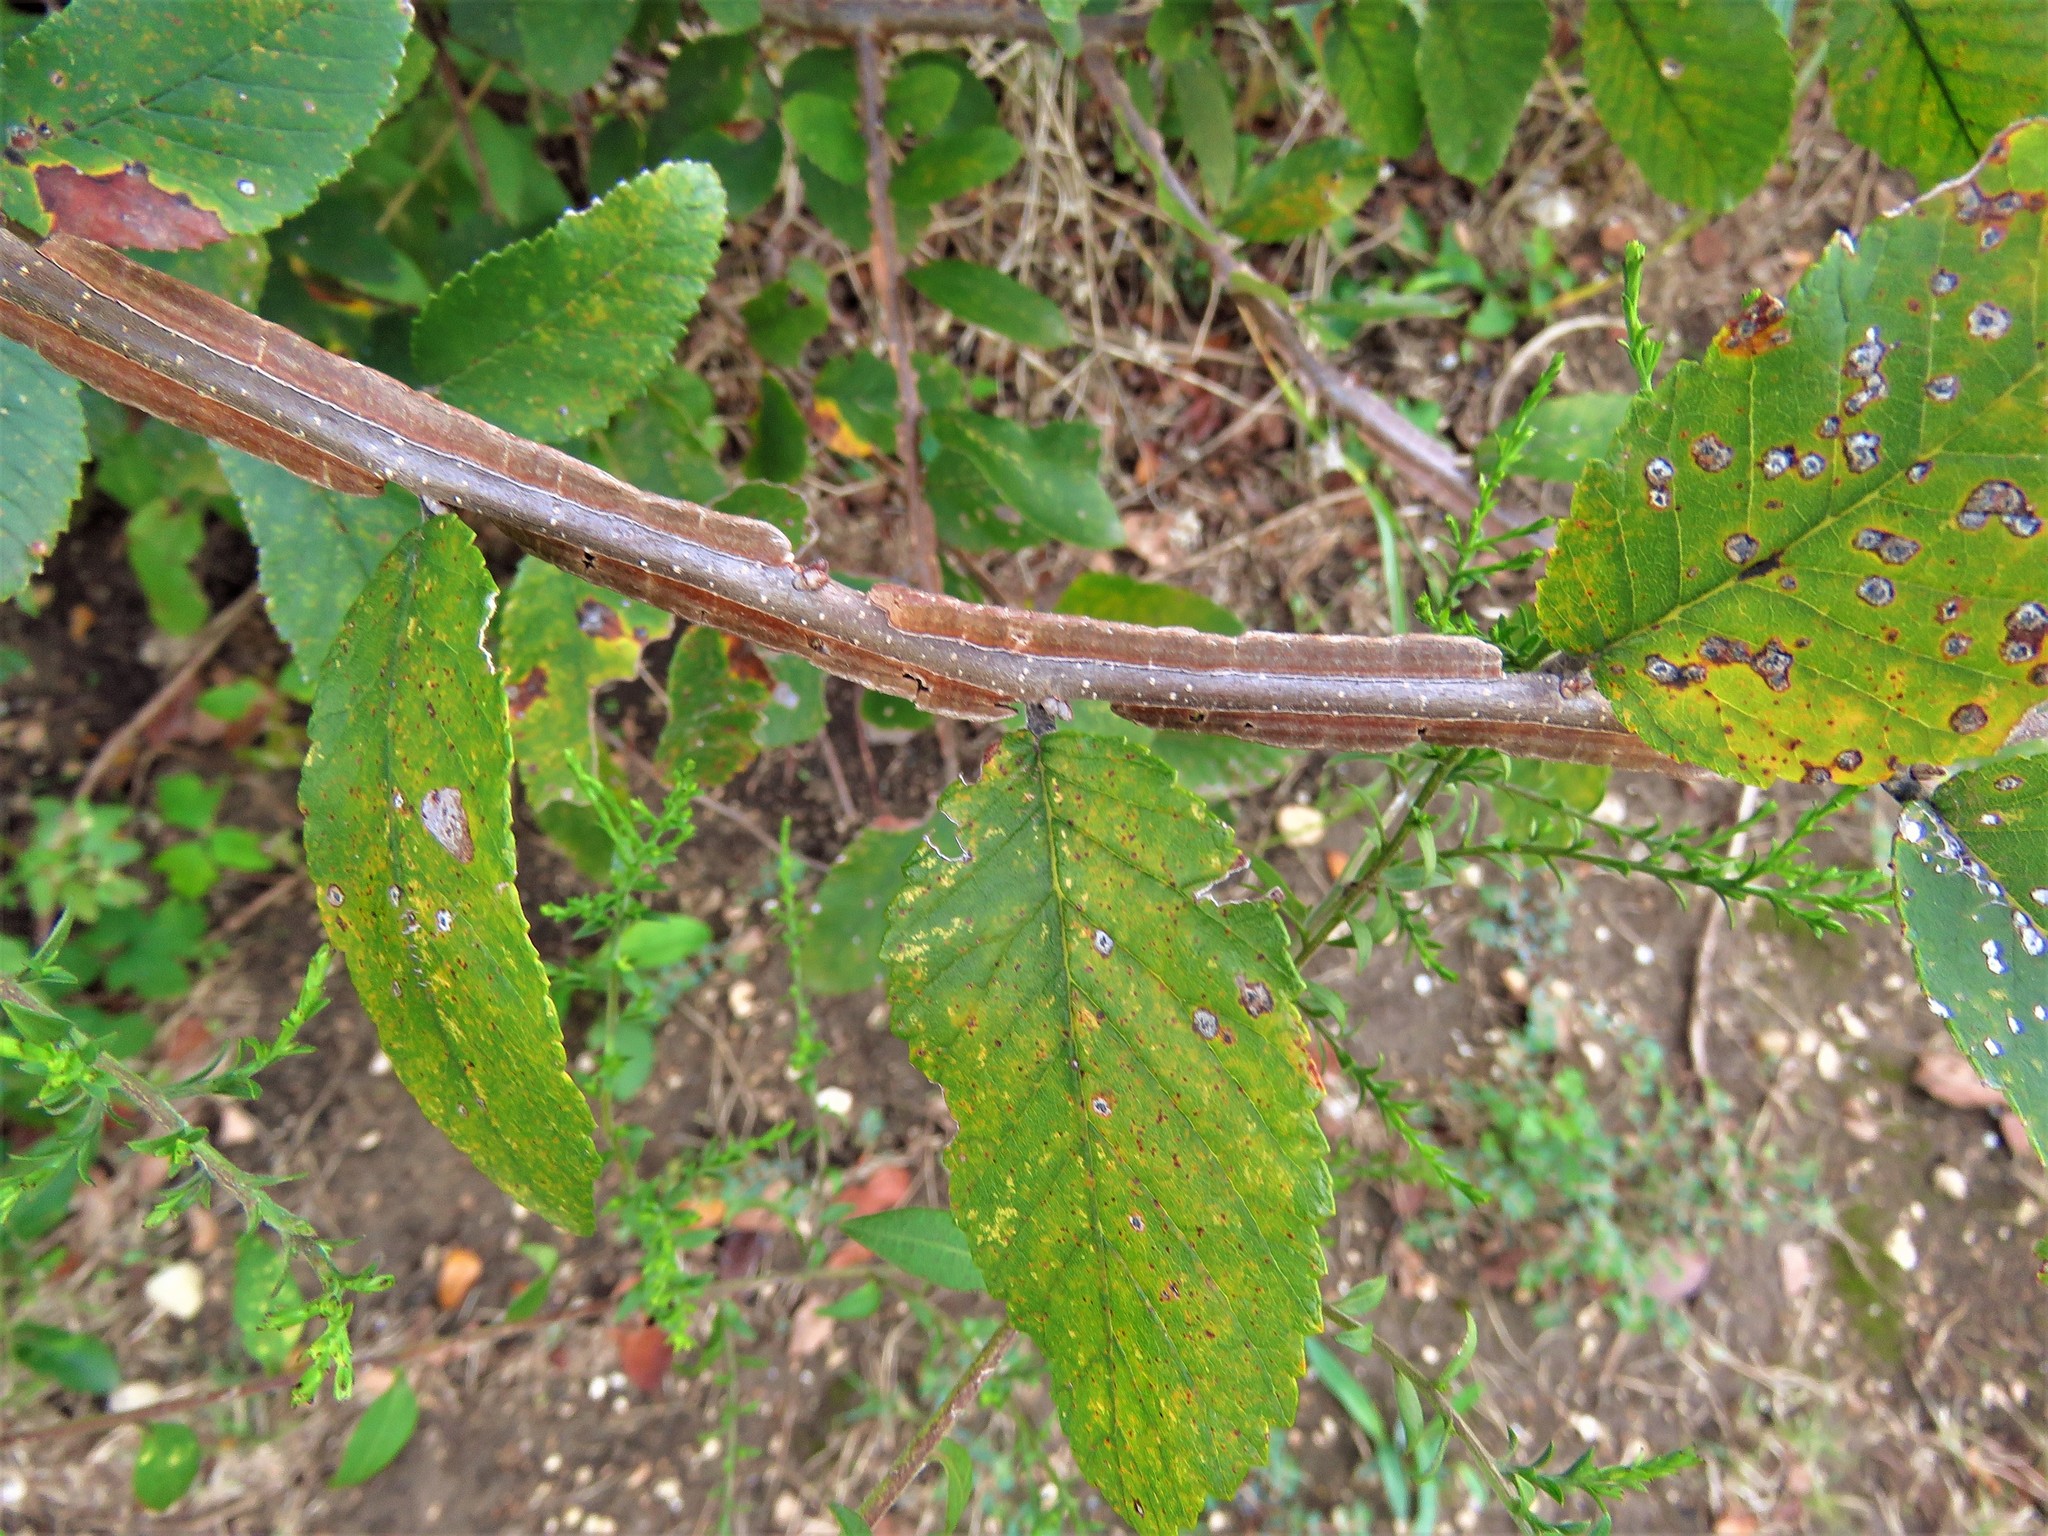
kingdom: Plantae
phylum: Tracheophyta
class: Magnoliopsida
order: Rosales
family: Ulmaceae
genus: Ulmus
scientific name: Ulmus crassifolia
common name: Basket elm
